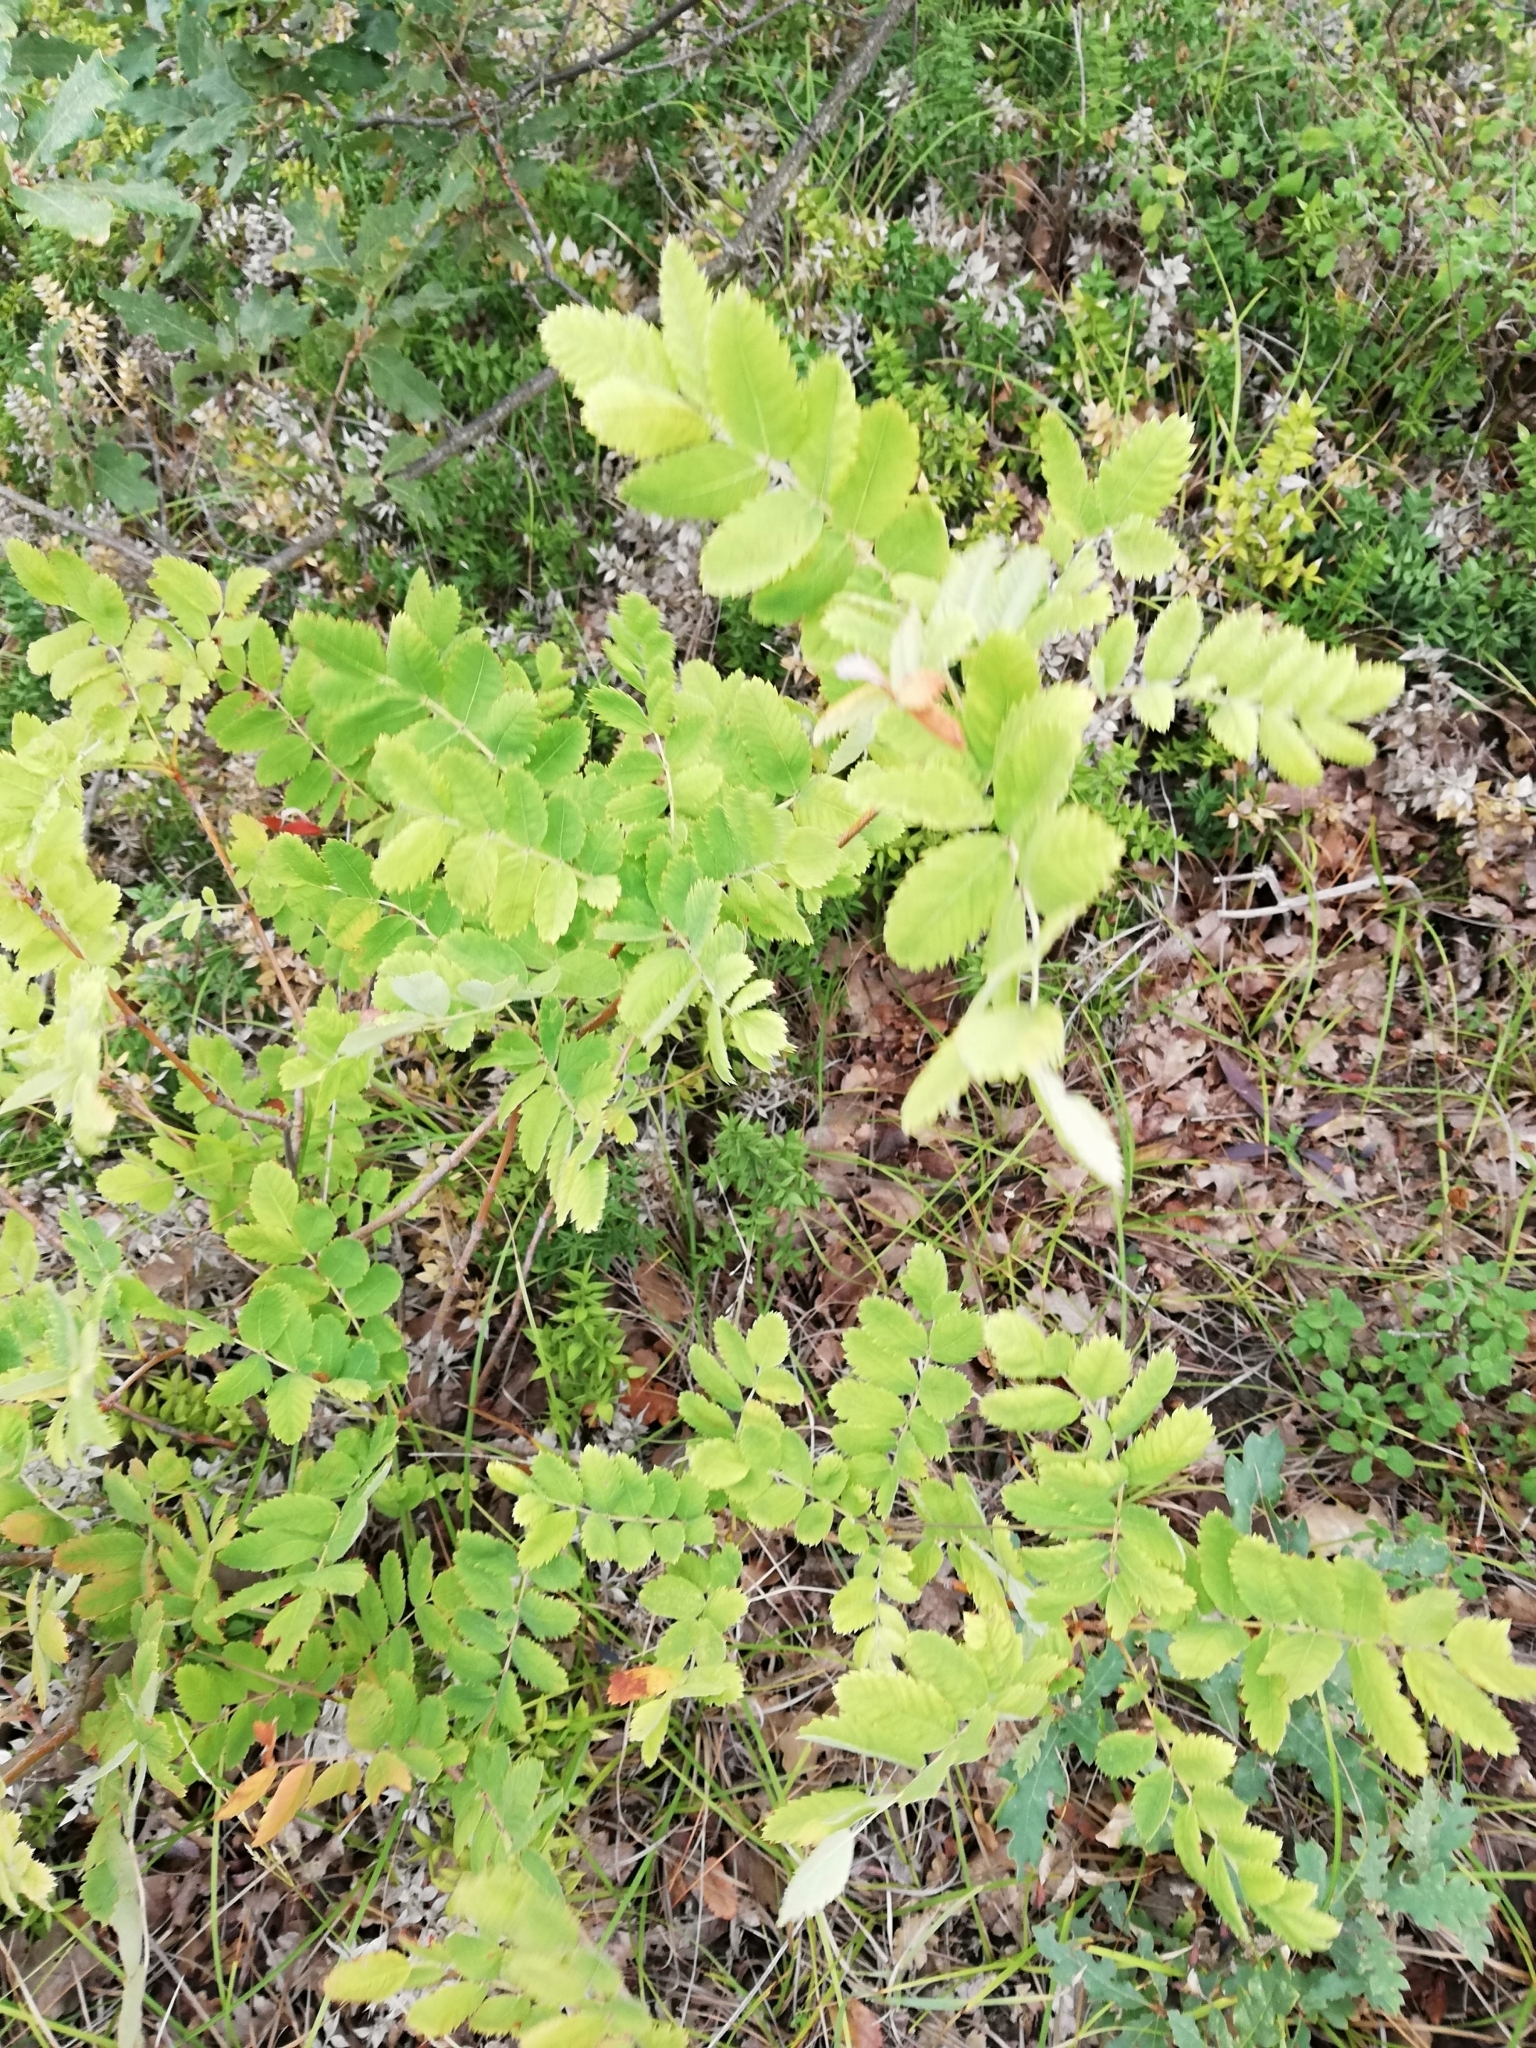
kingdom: Plantae
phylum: Tracheophyta
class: Magnoliopsida
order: Rosales
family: Rosaceae
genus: Sorbus
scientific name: Sorbus aucuparia
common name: Rowan
